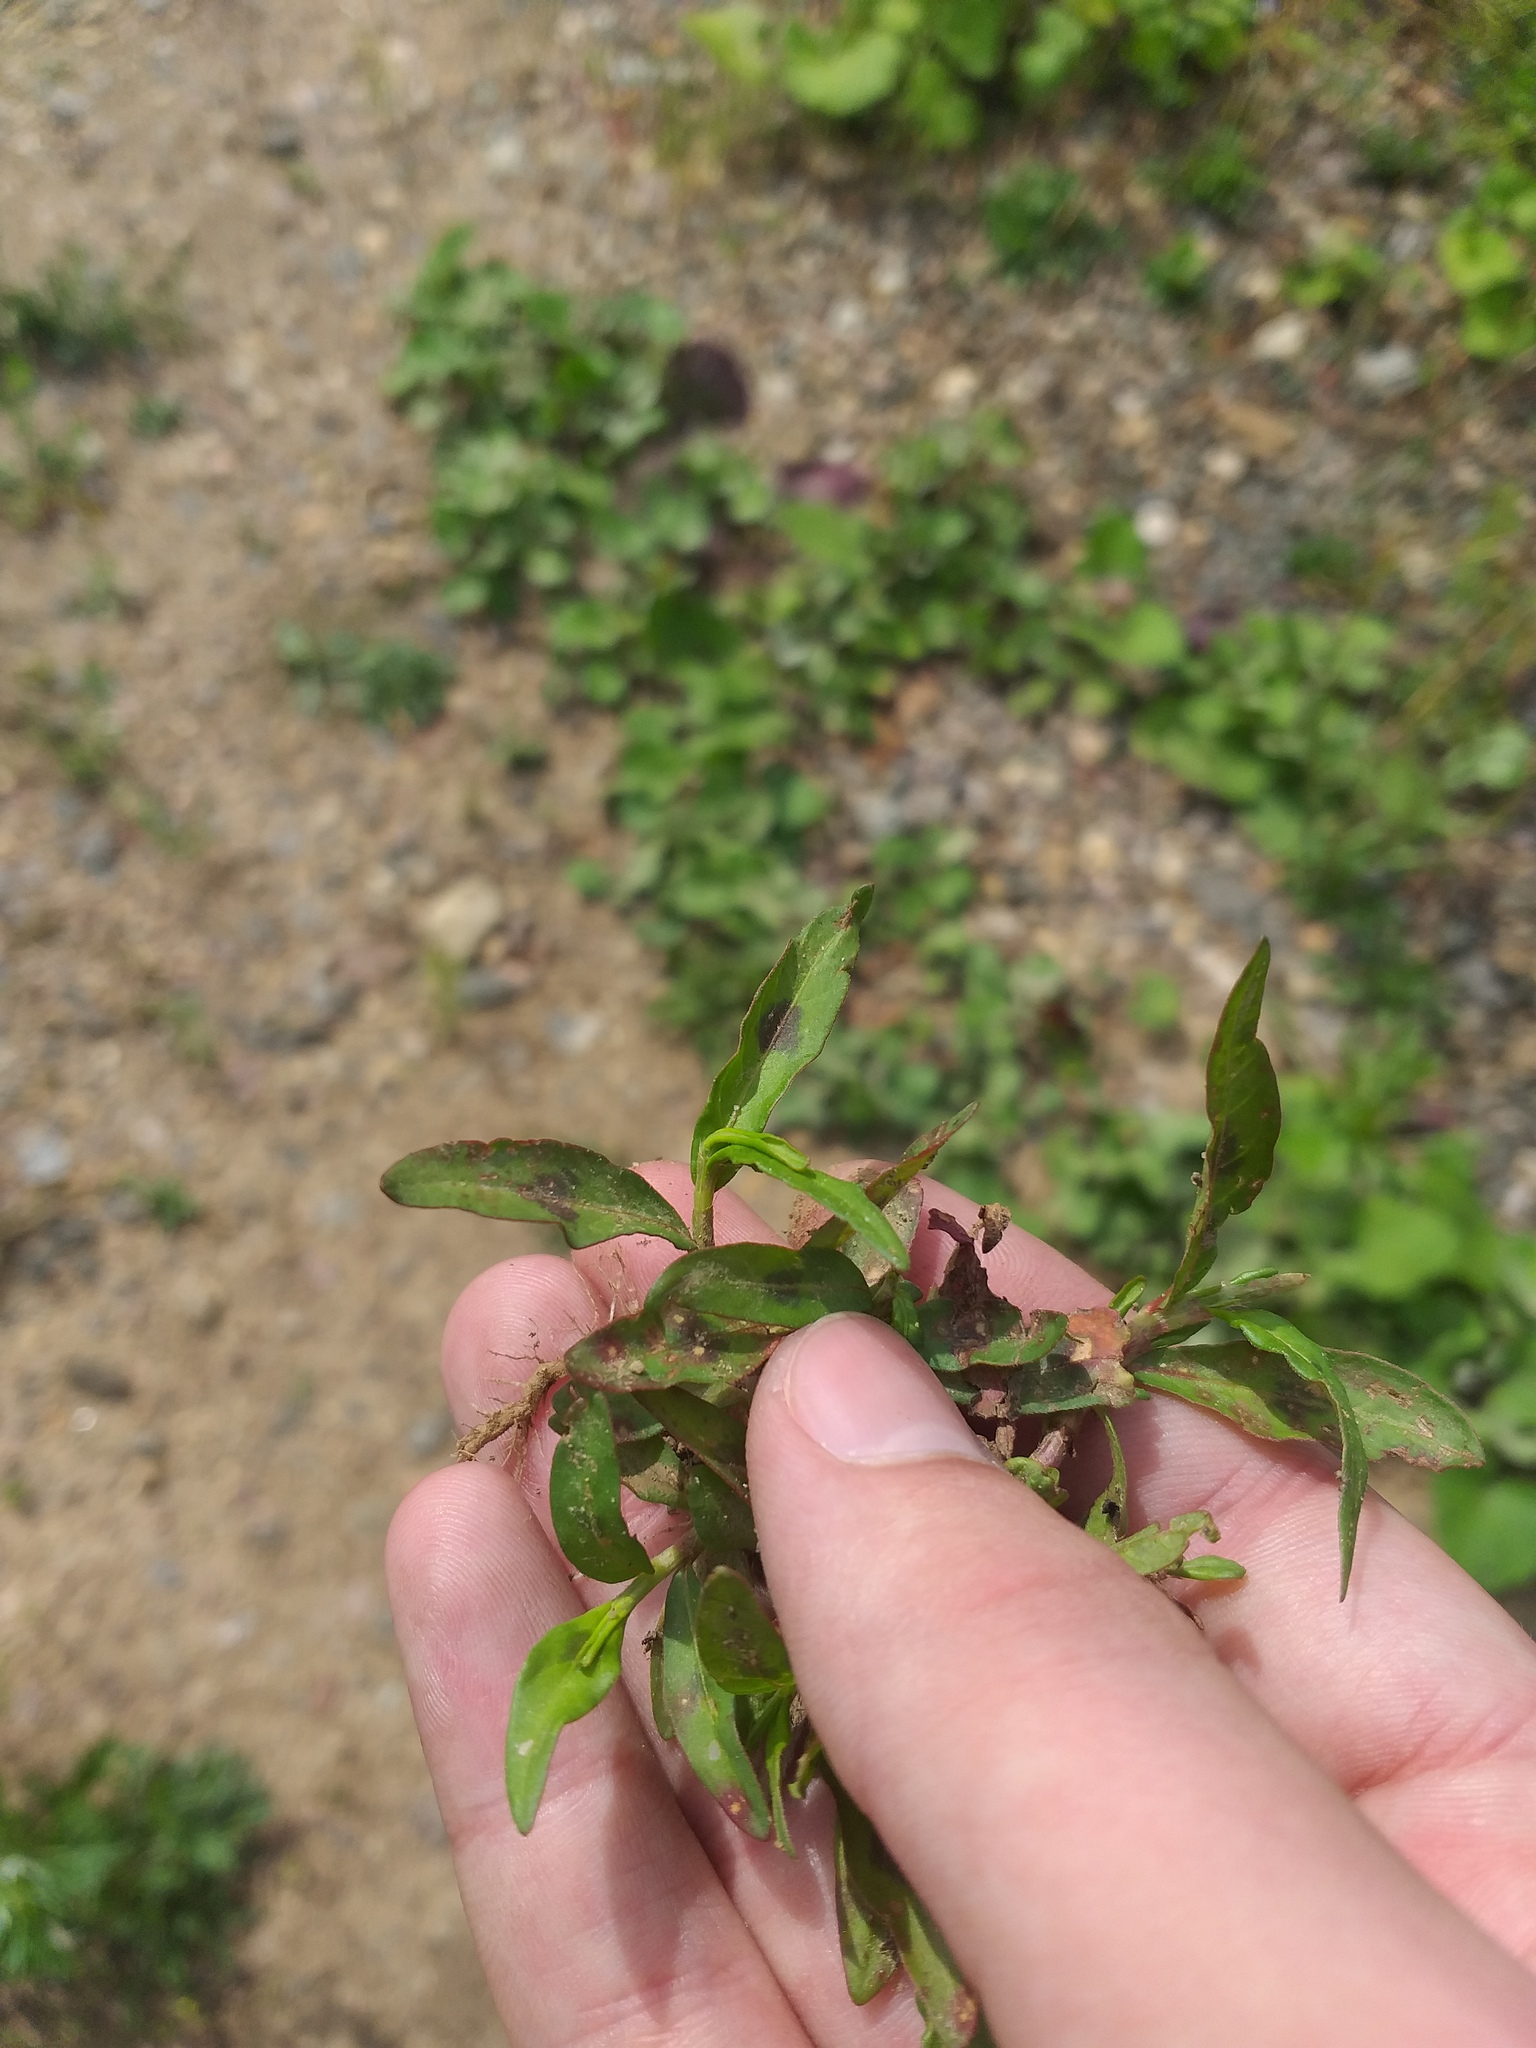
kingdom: Plantae
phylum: Tracheophyta
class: Magnoliopsida
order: Caryophyllales
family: Polygonaceae
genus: Persicaria
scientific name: Persicaria maculosa
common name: Redshank
